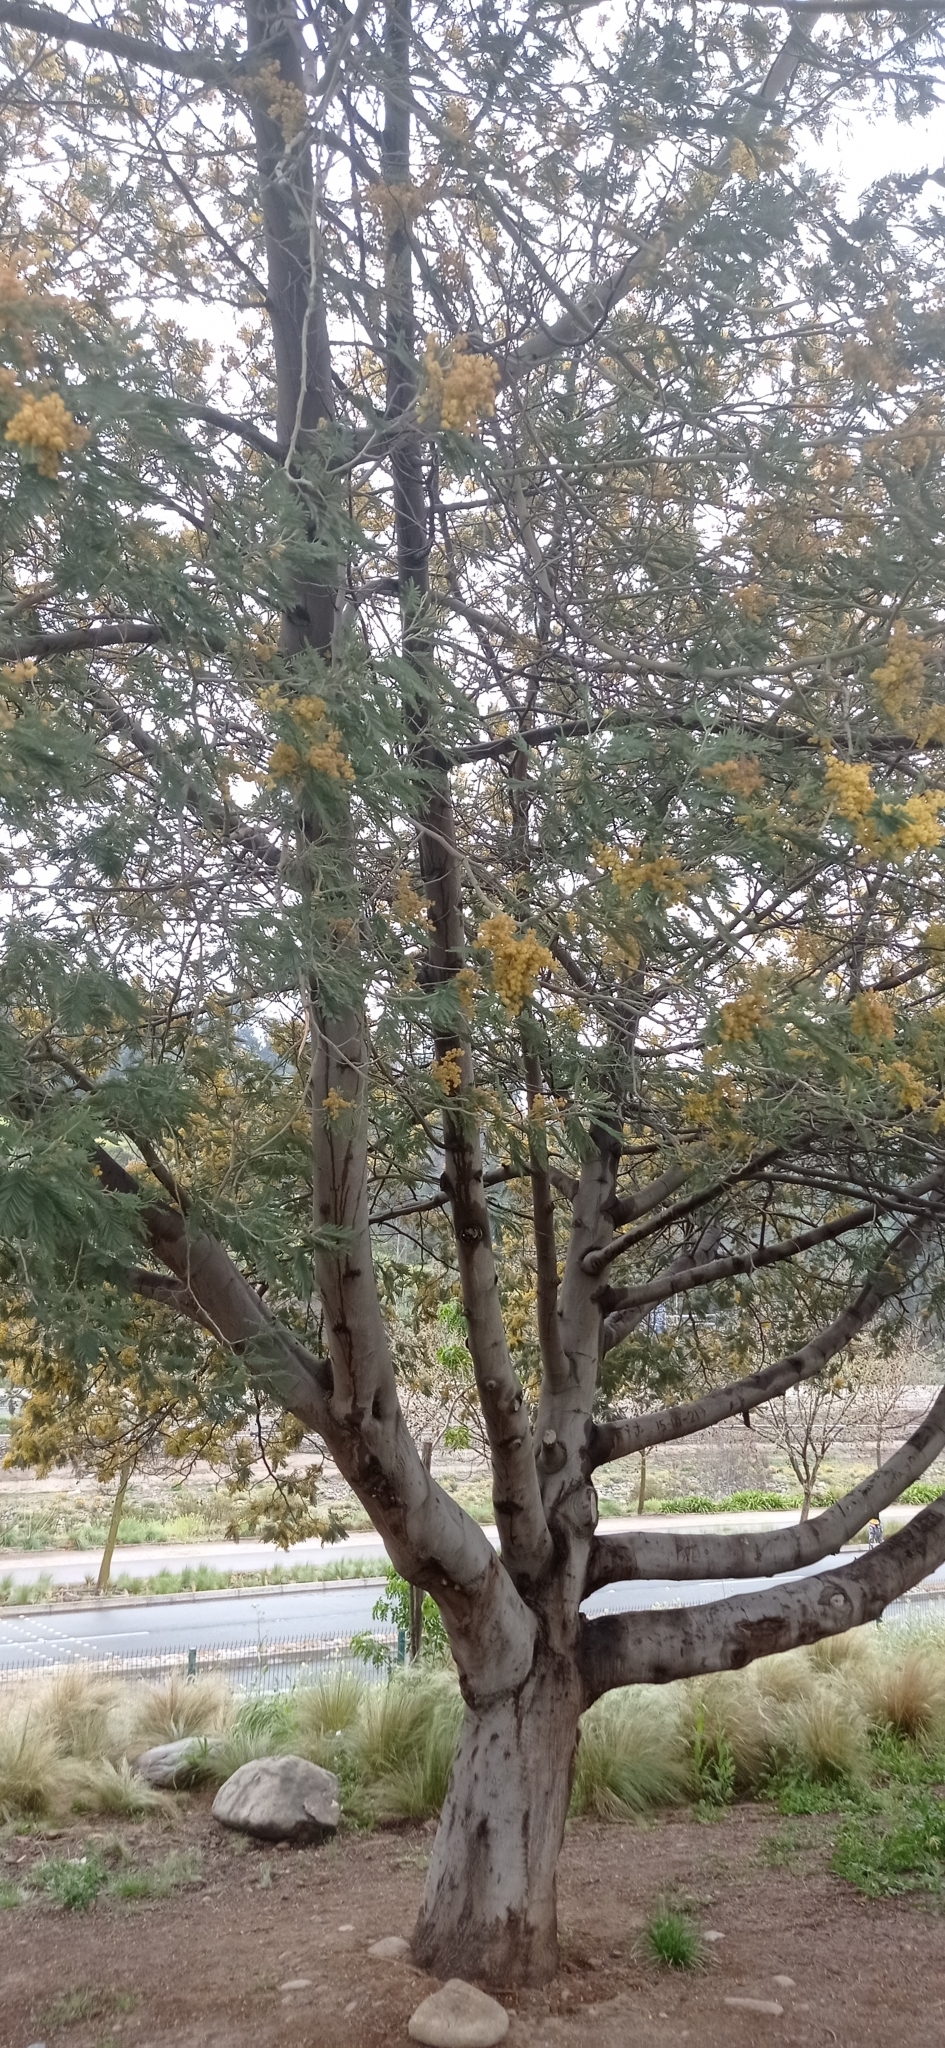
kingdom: Plantae
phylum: Tracheophyta
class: Magnoliopsida
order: Fabales
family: Fabaceae
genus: Acacia
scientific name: Acacia dealbata
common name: Silver wattle
